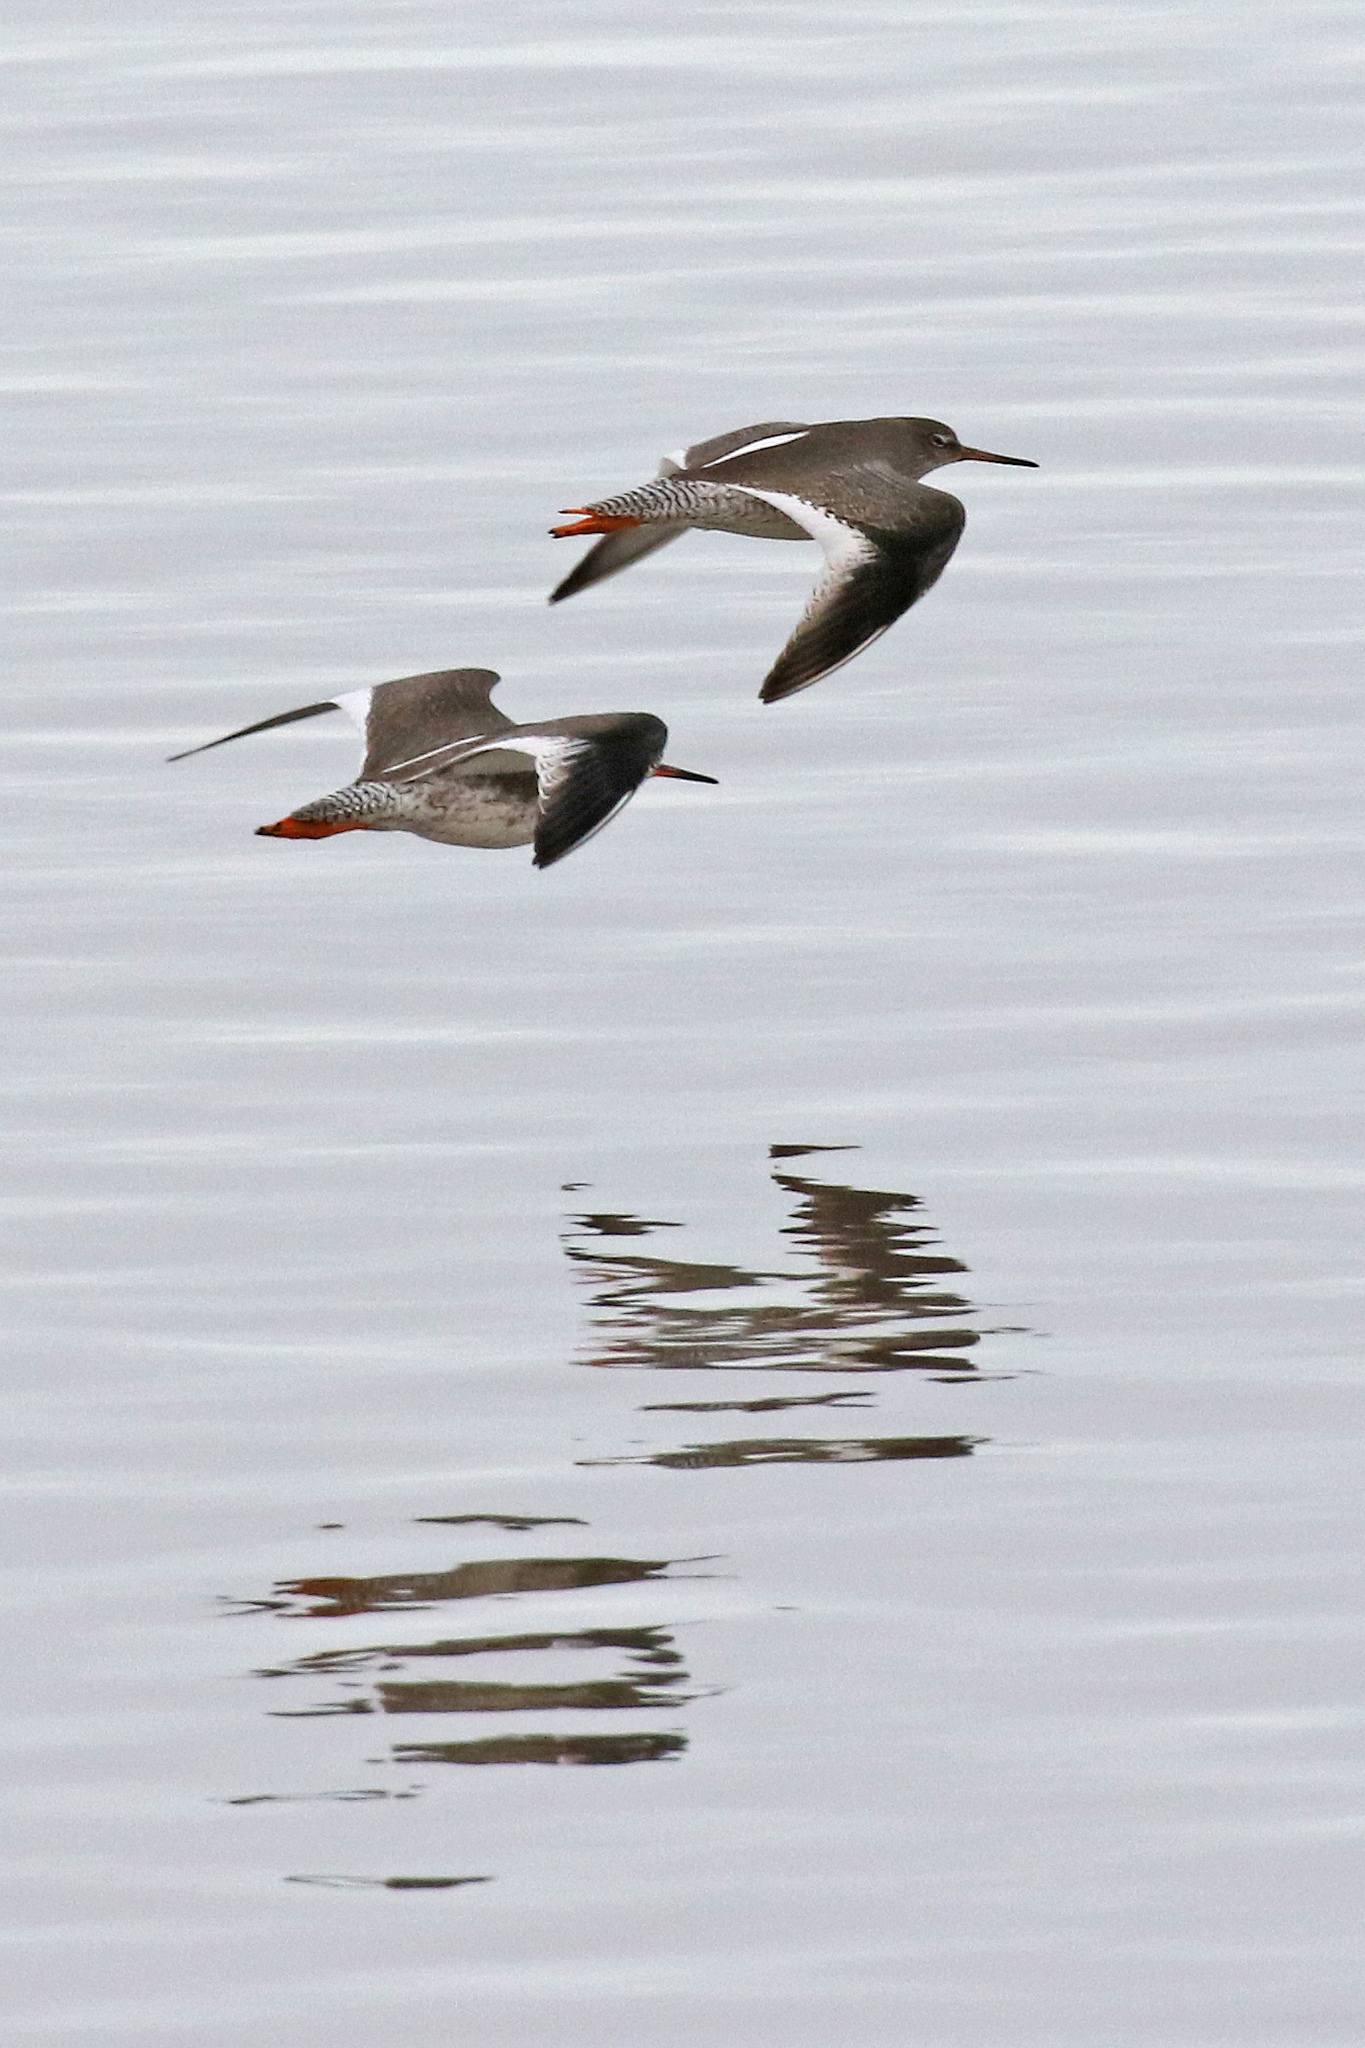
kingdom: Animalia
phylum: Chordata
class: Aves
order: Charadriiformes
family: Scolopacidae
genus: Tringa
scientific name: Tringa totanus
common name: Common redshank
